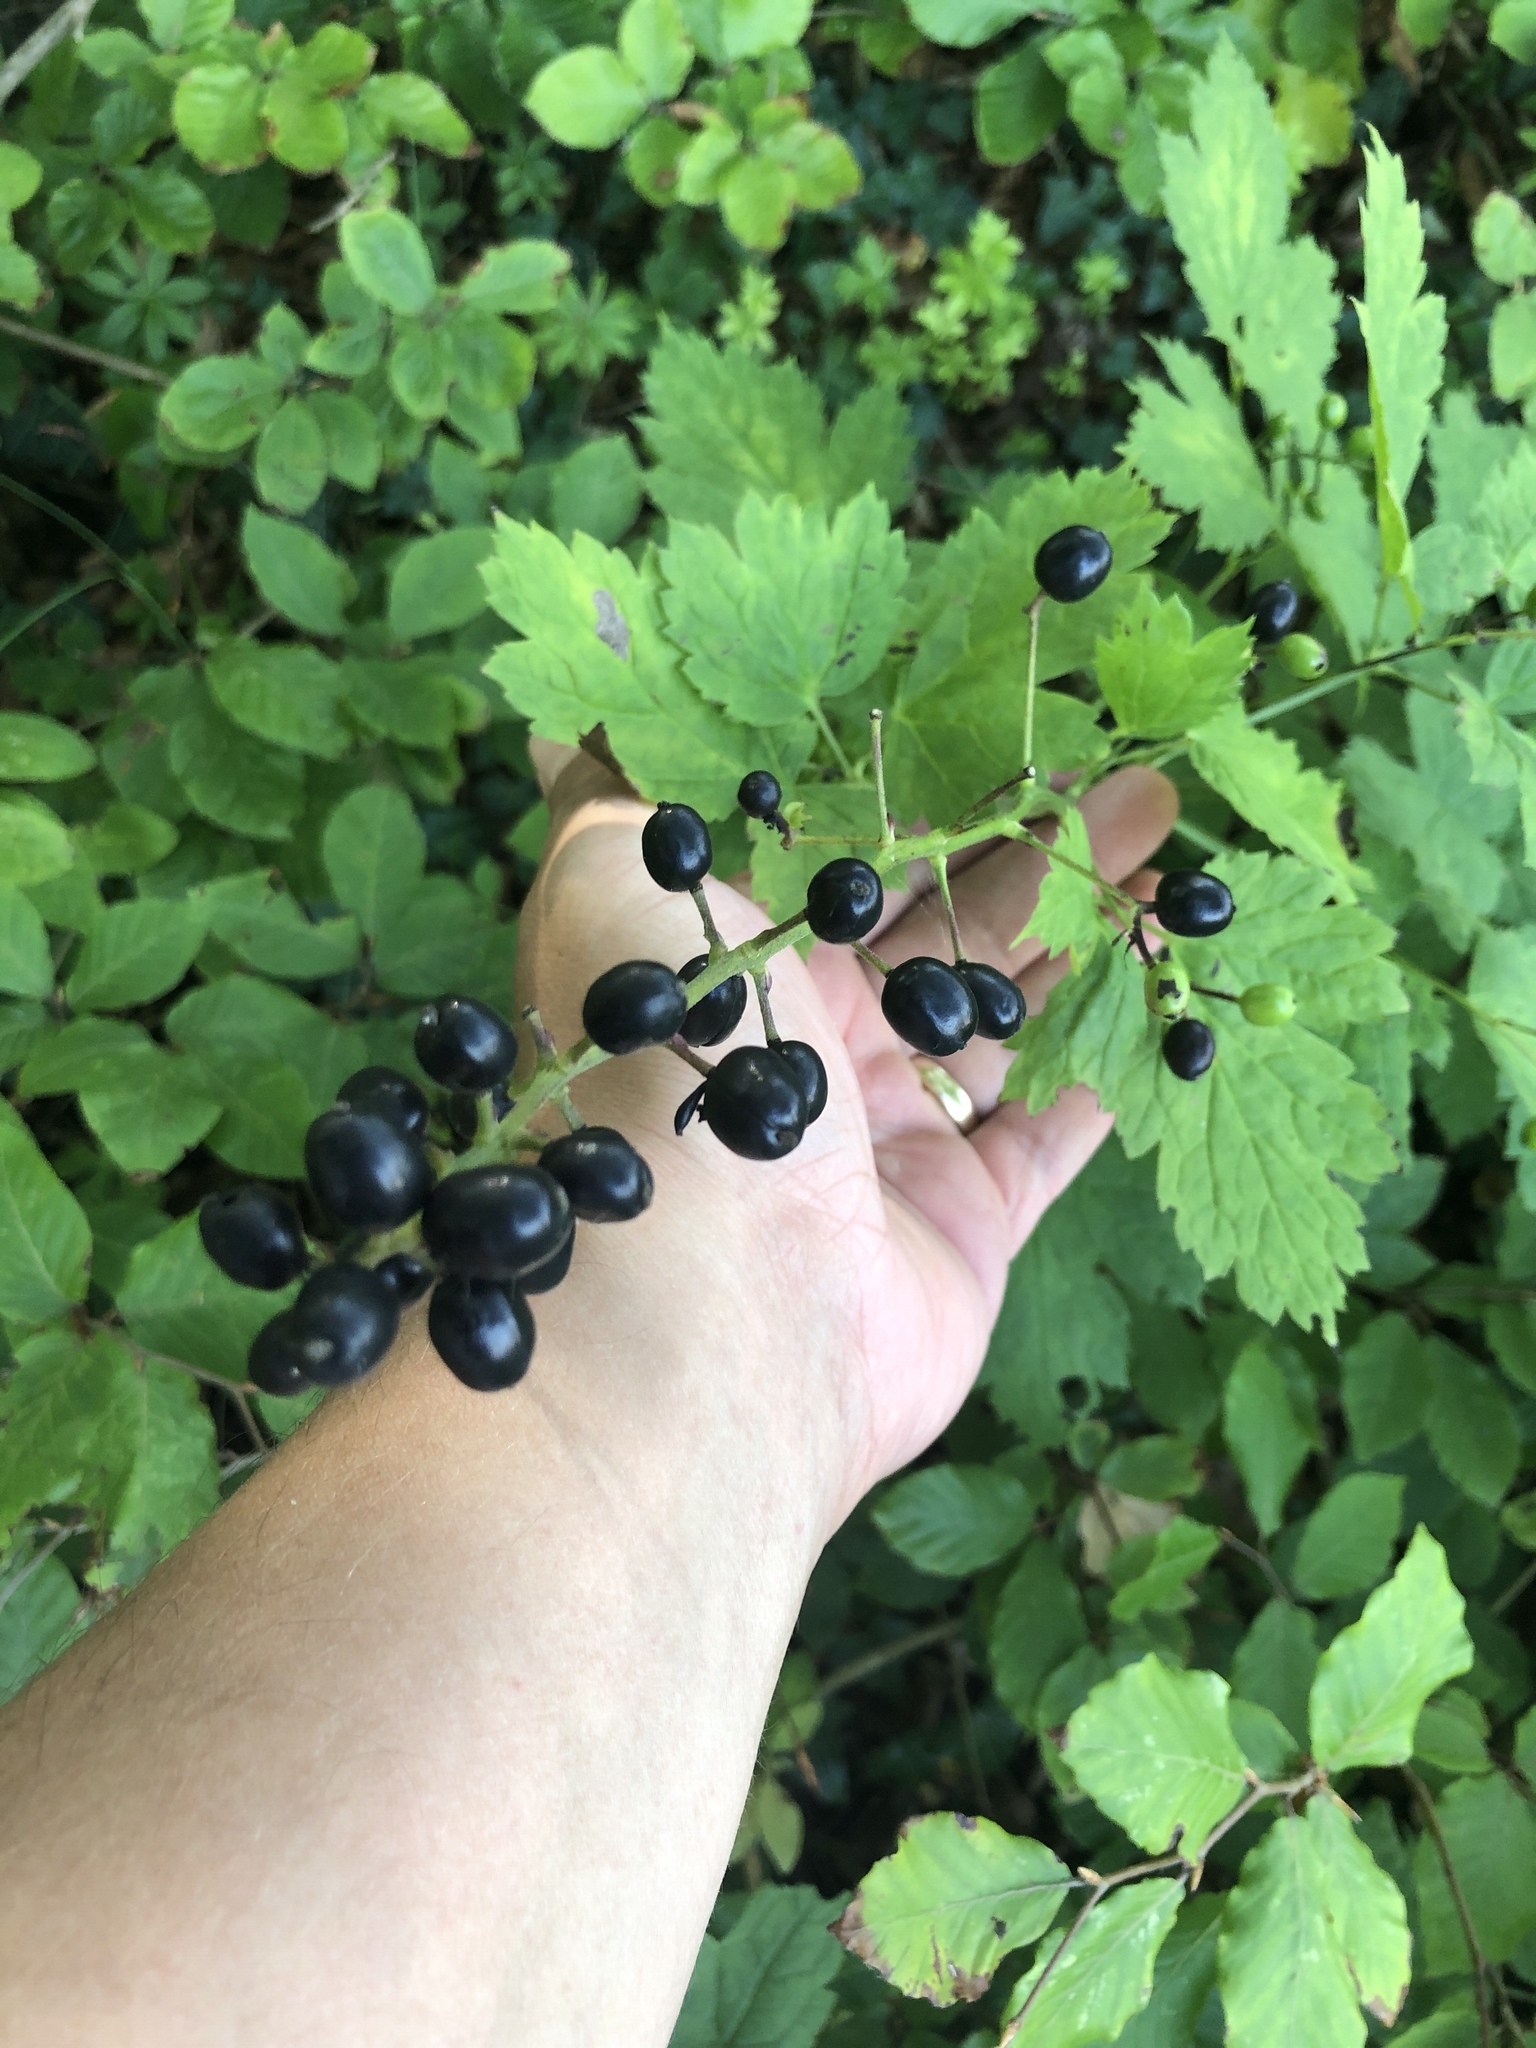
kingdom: Plantae
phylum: Tracheophyta
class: Magnoliopsida
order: Ranunculales
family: Ranunculaceae
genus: Actaea
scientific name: Actaea spicata
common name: Baneberry
